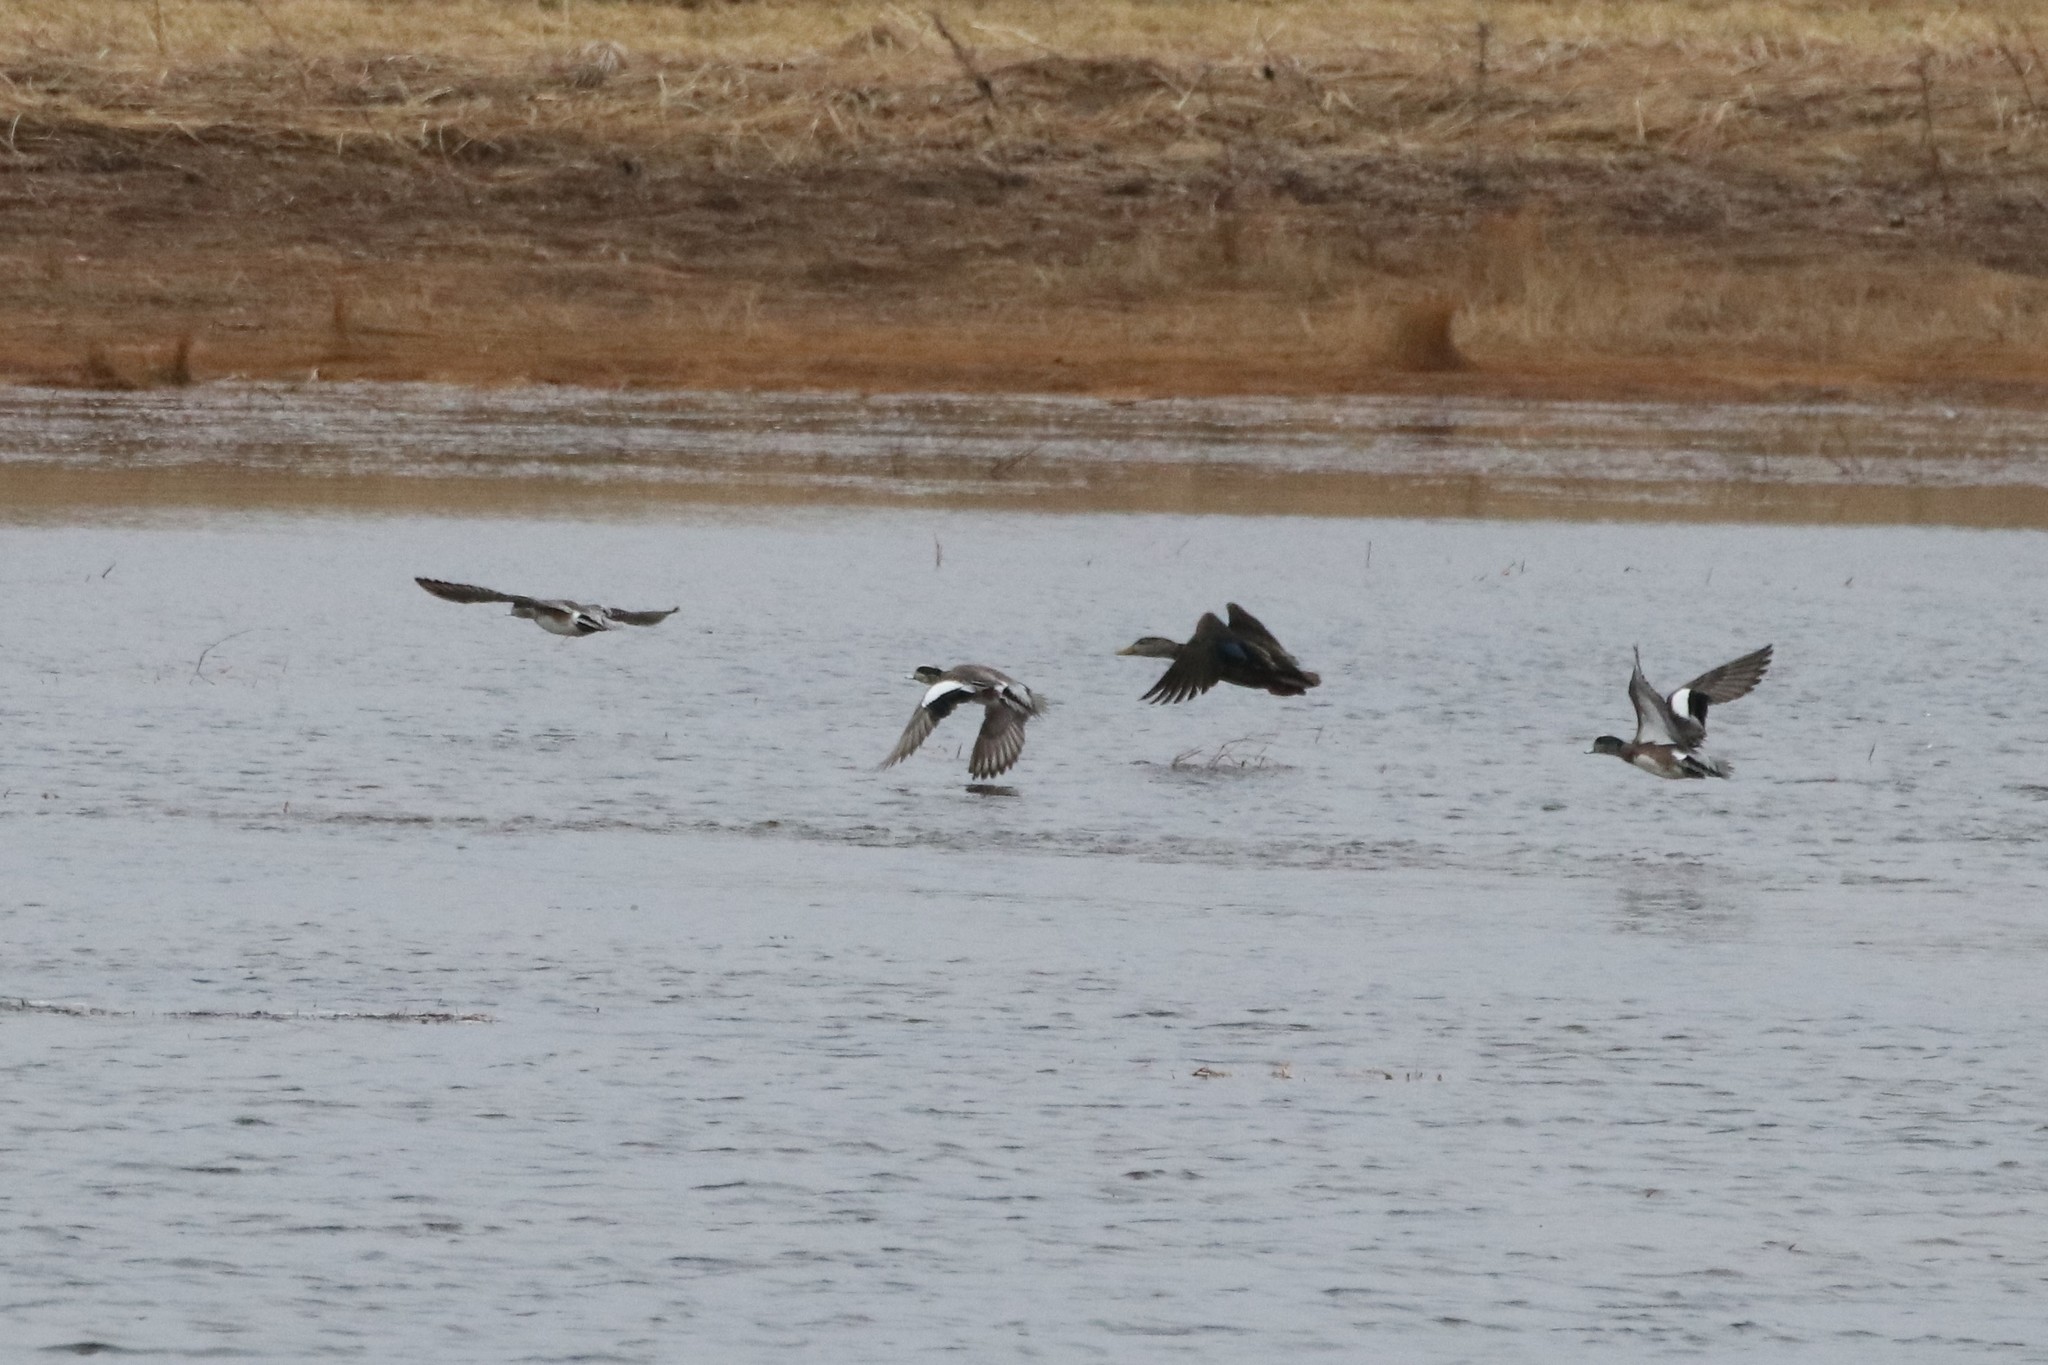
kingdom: Animalia
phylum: Chordata
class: Aves
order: Anseriformes
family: Anatidae
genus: Mareca
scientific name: Mareca americana
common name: American wigeon
